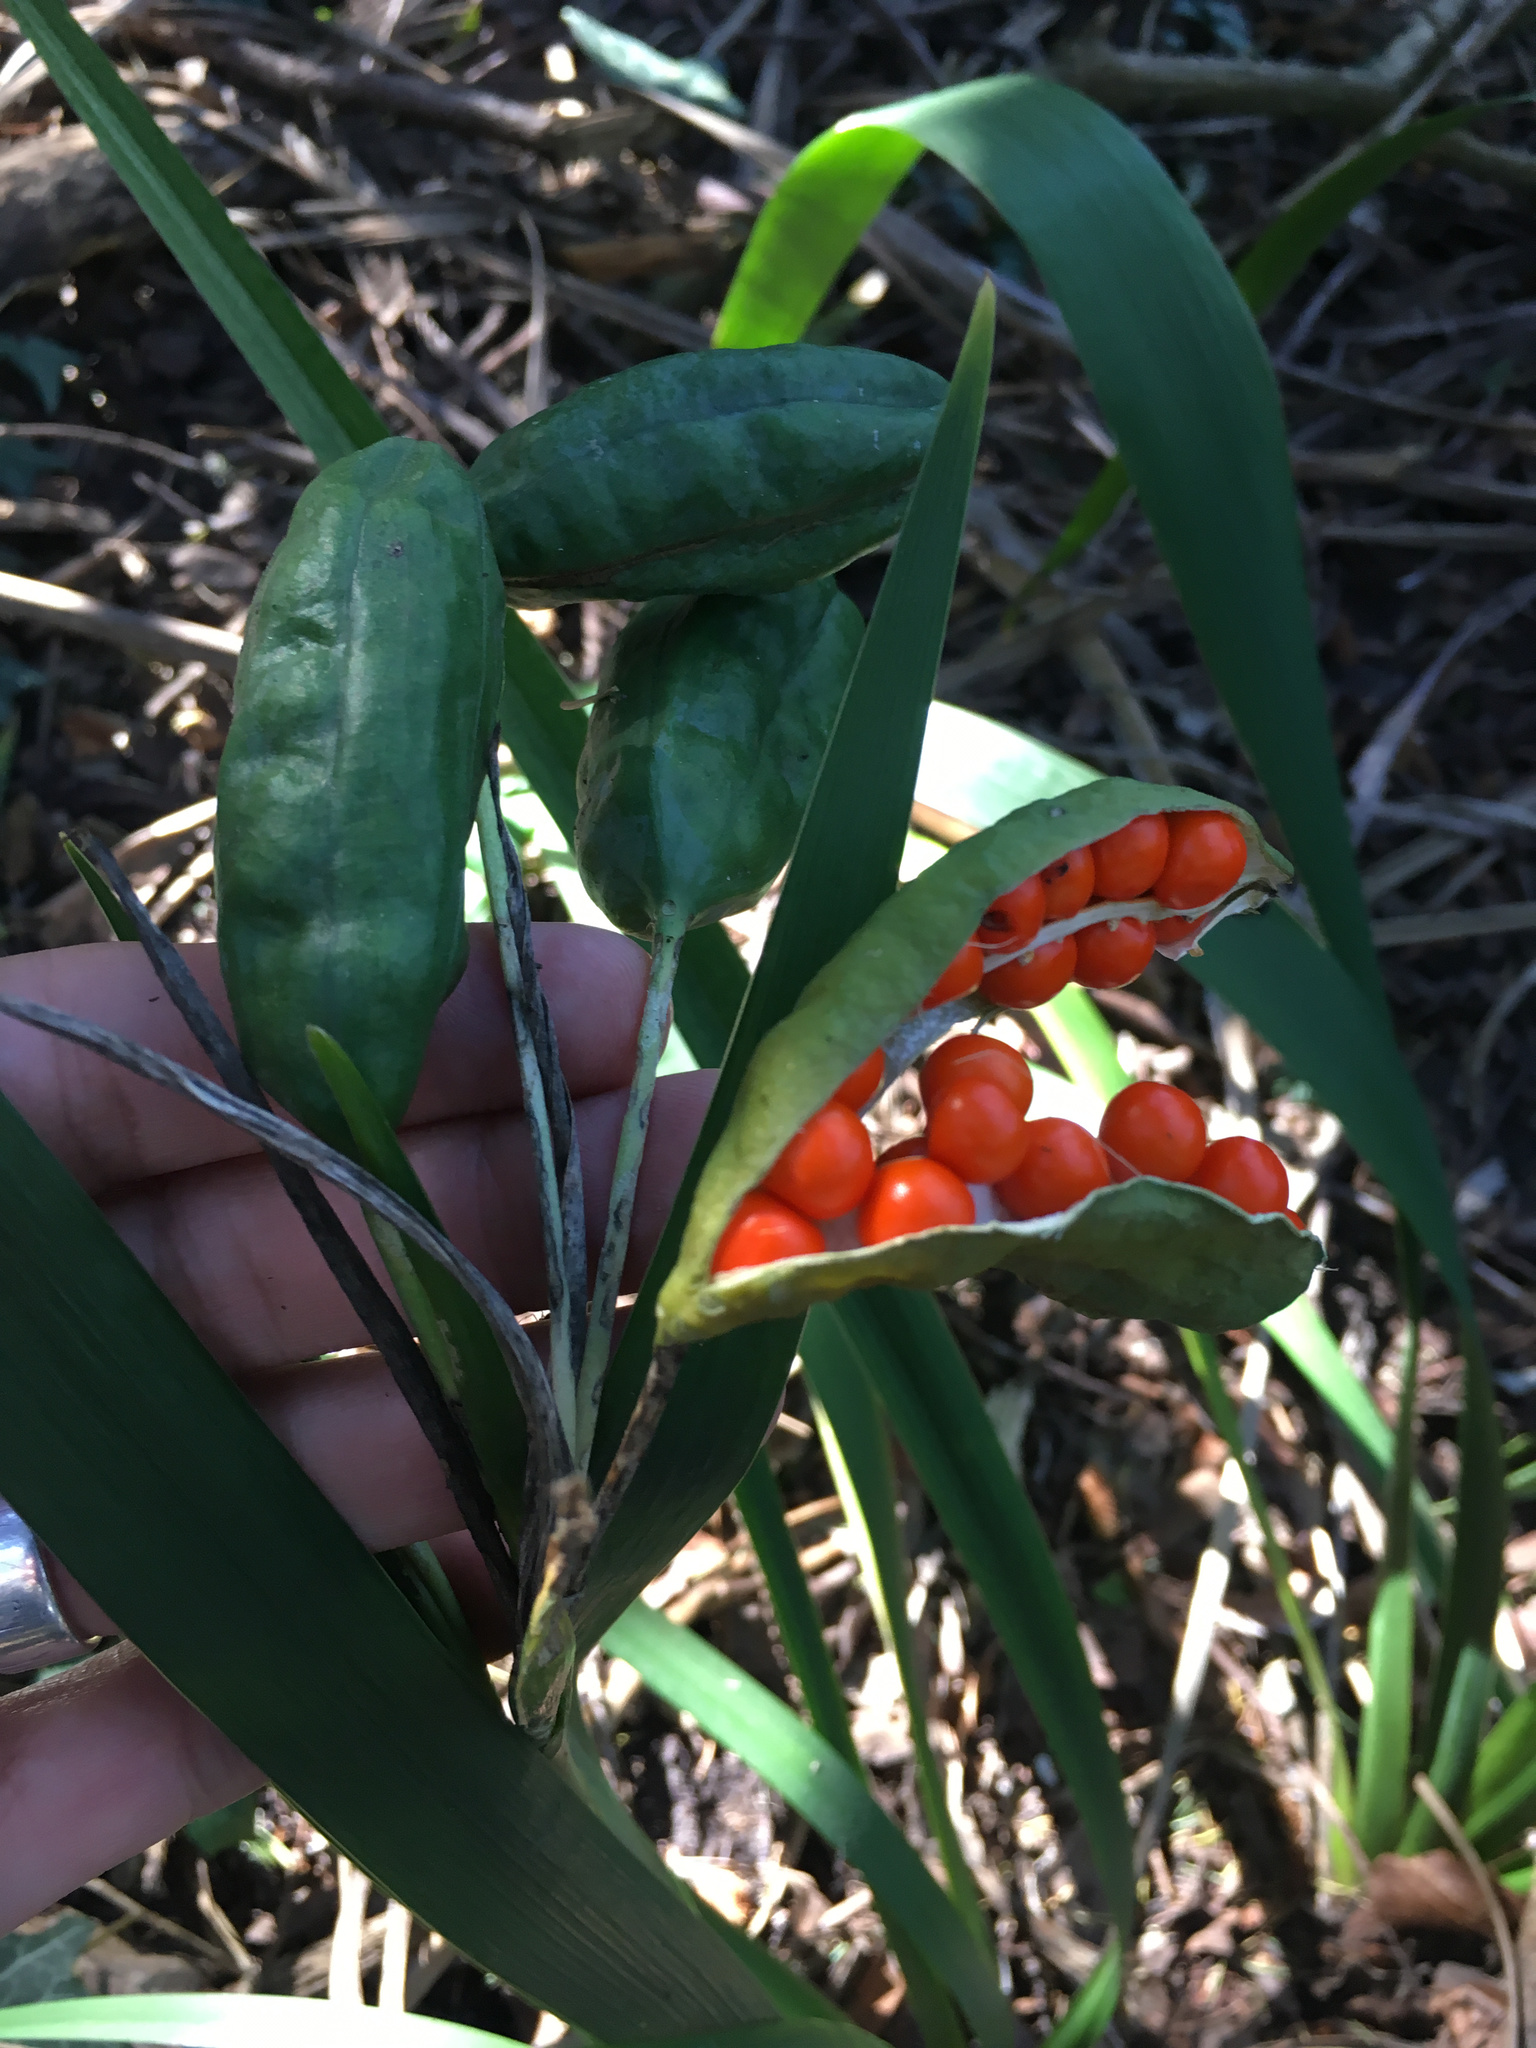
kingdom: Plantae
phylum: Tracheophyta
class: Liliopsida
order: Asparagales
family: Iridaceae
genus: Iris
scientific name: Iris foetidissima
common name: Stinking iris
